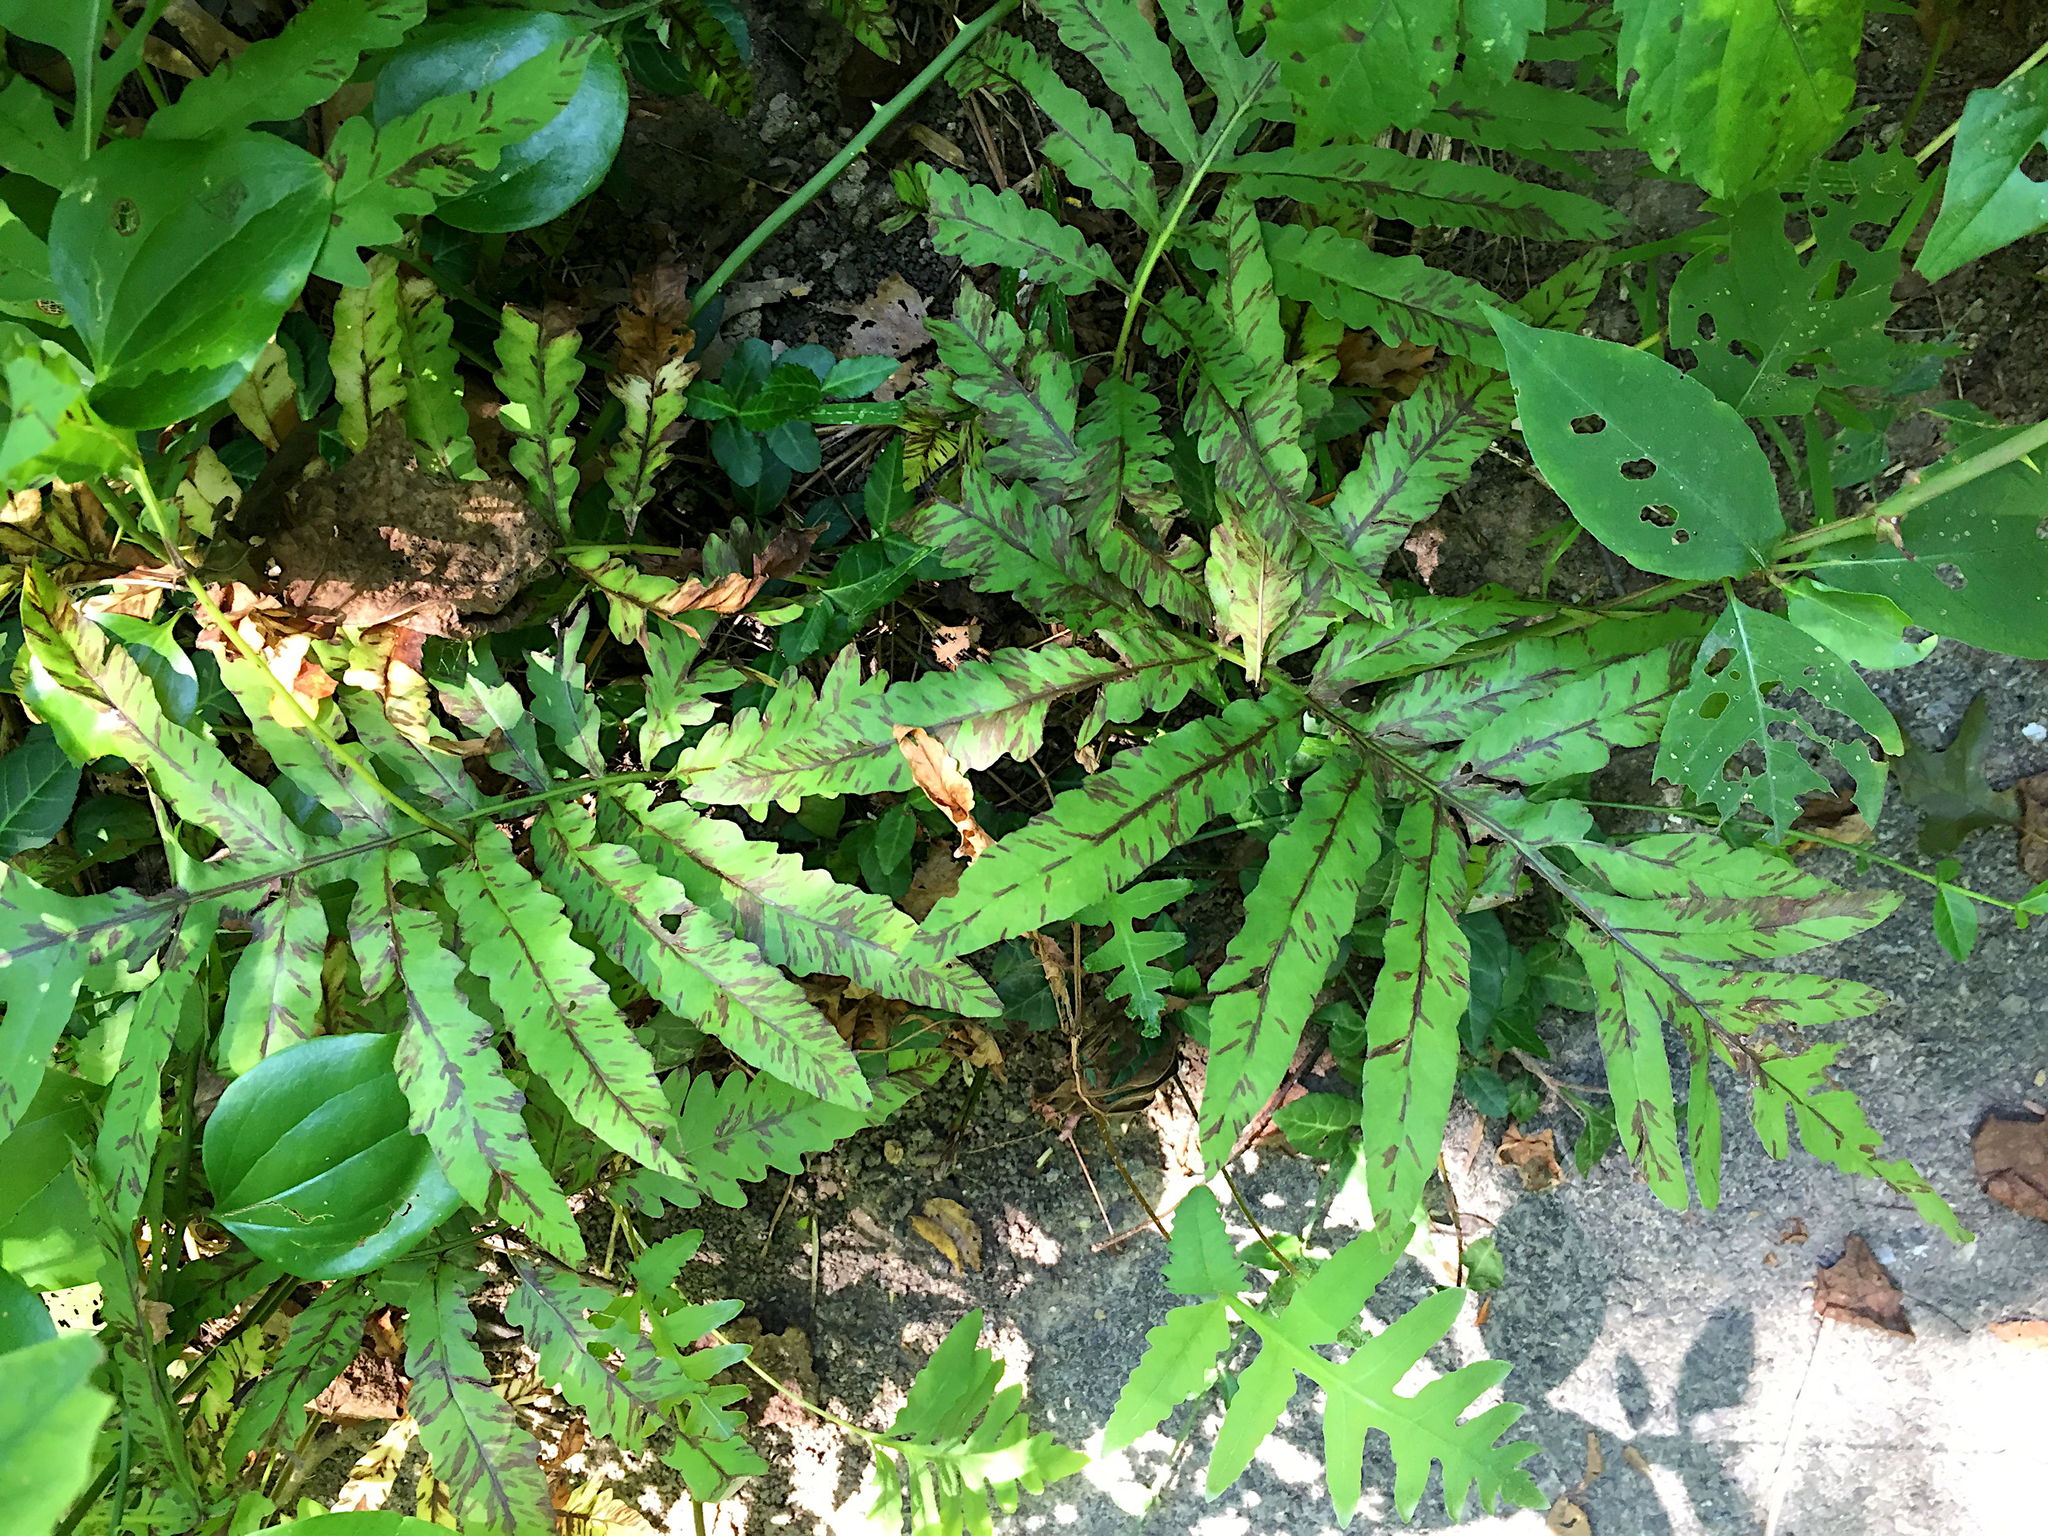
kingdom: Plantae
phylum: Tracheophyta
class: Polypodiopsida
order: Polypodiales
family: Onocleaceae
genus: Onoclea
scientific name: Onoclea sensibilis
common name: Sensitive fern
